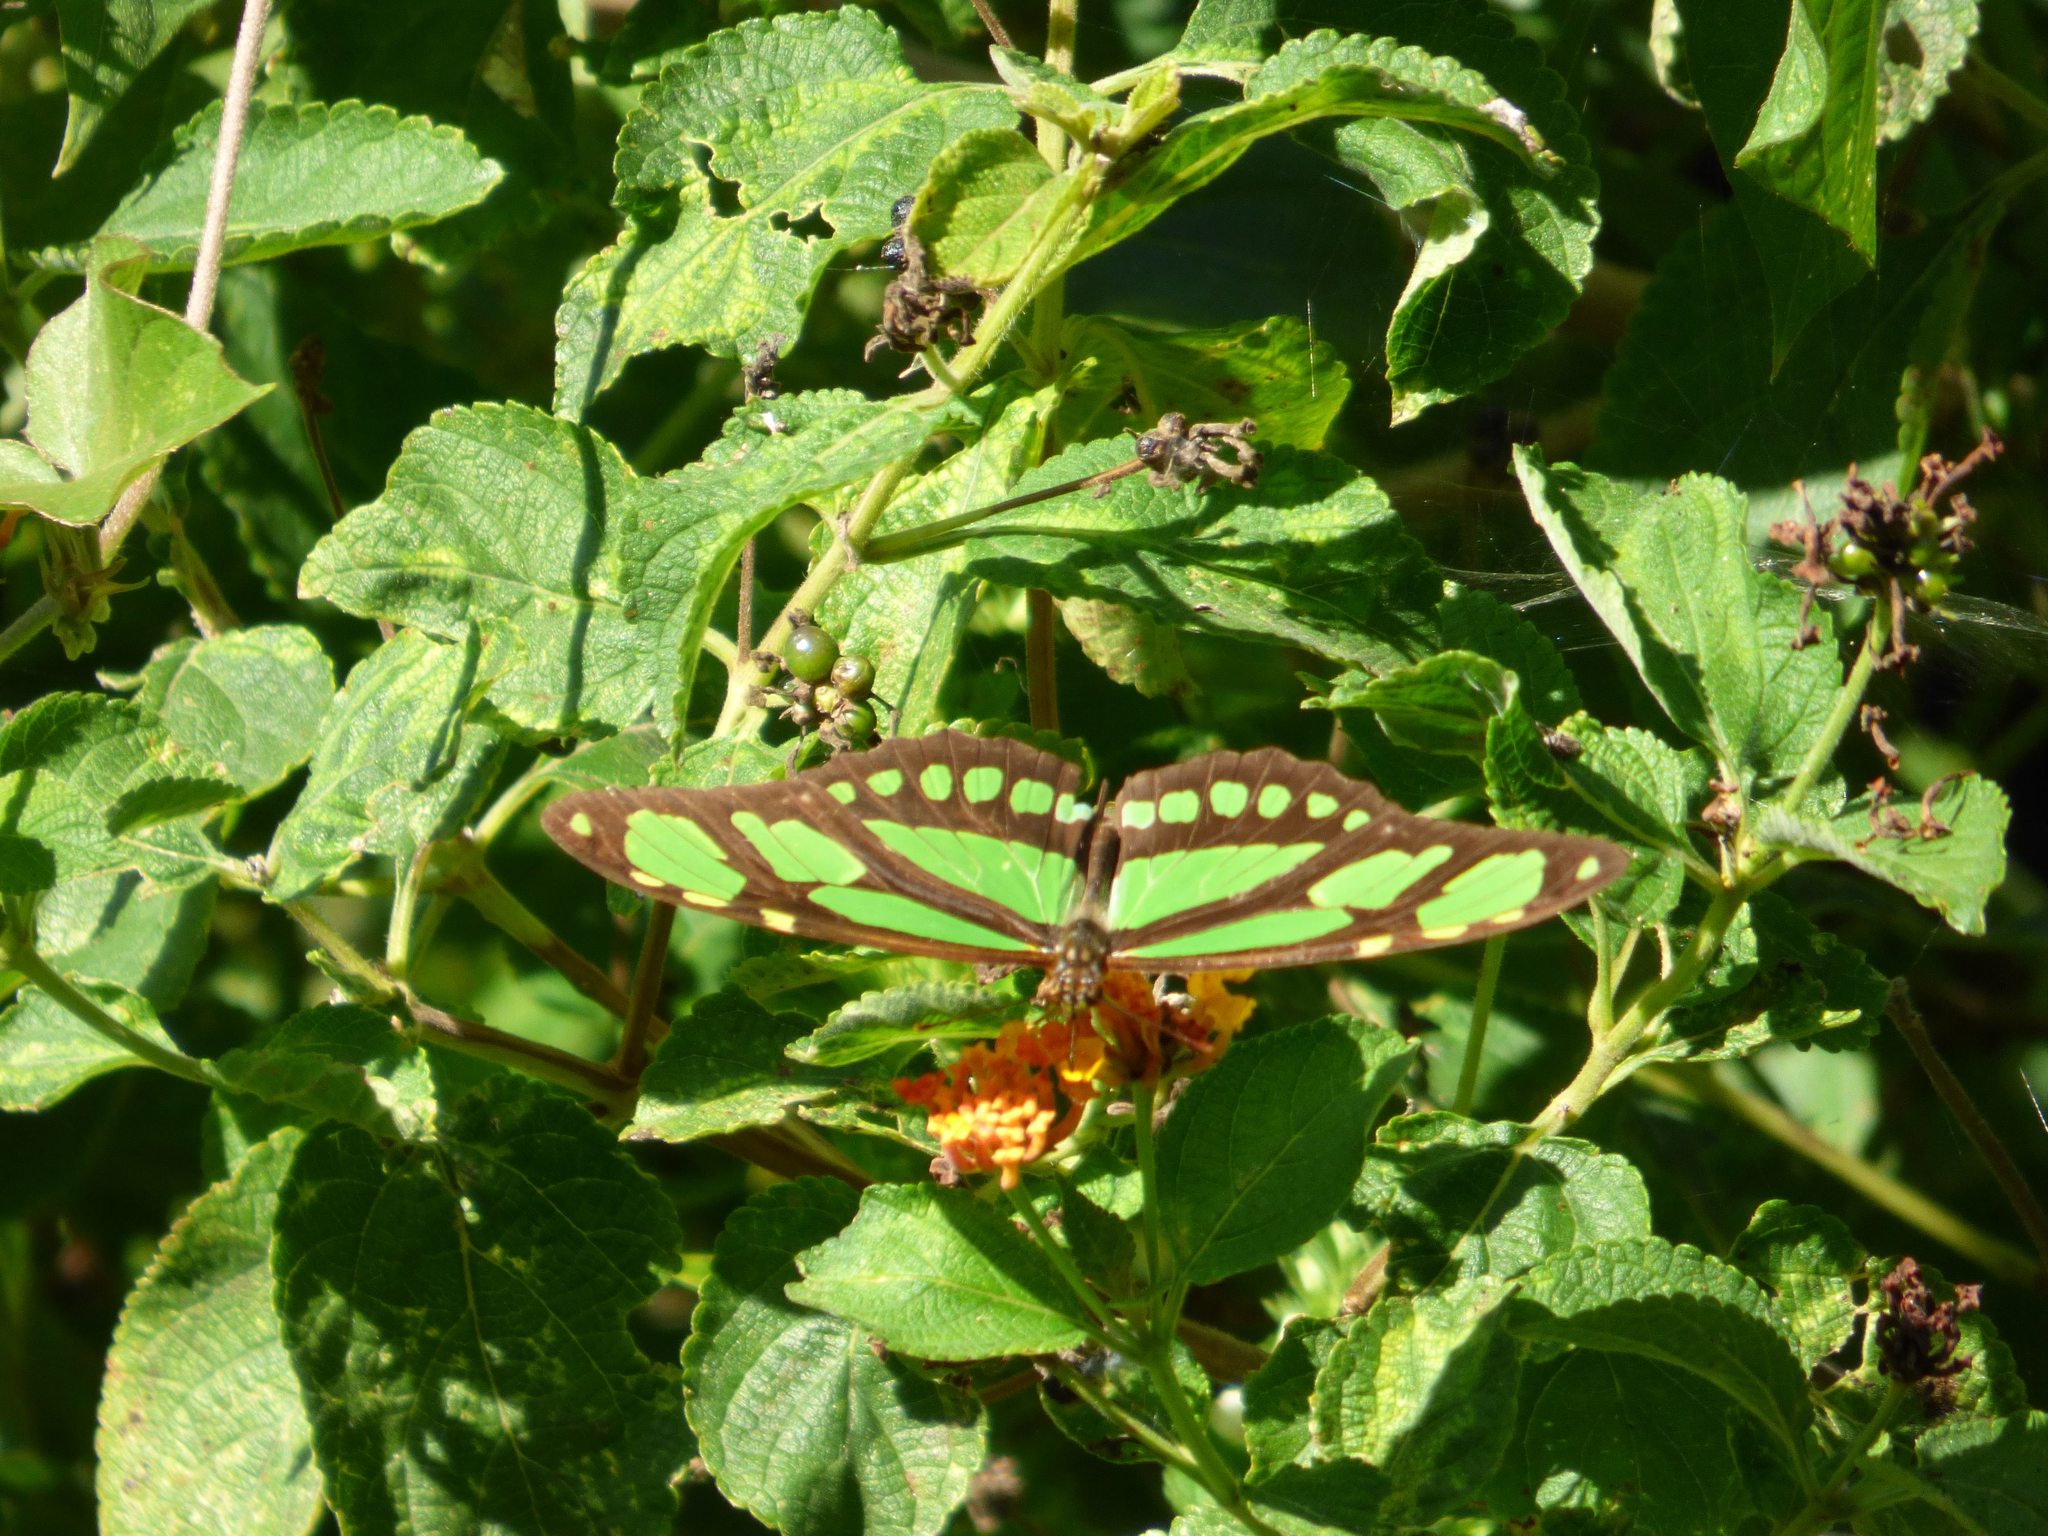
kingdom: Animalia
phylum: Arthropoda
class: Insecta
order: Lepidoptera
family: Nymphalidae
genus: Philaethria
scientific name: Philaethria dido
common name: Scarce bamboo page
